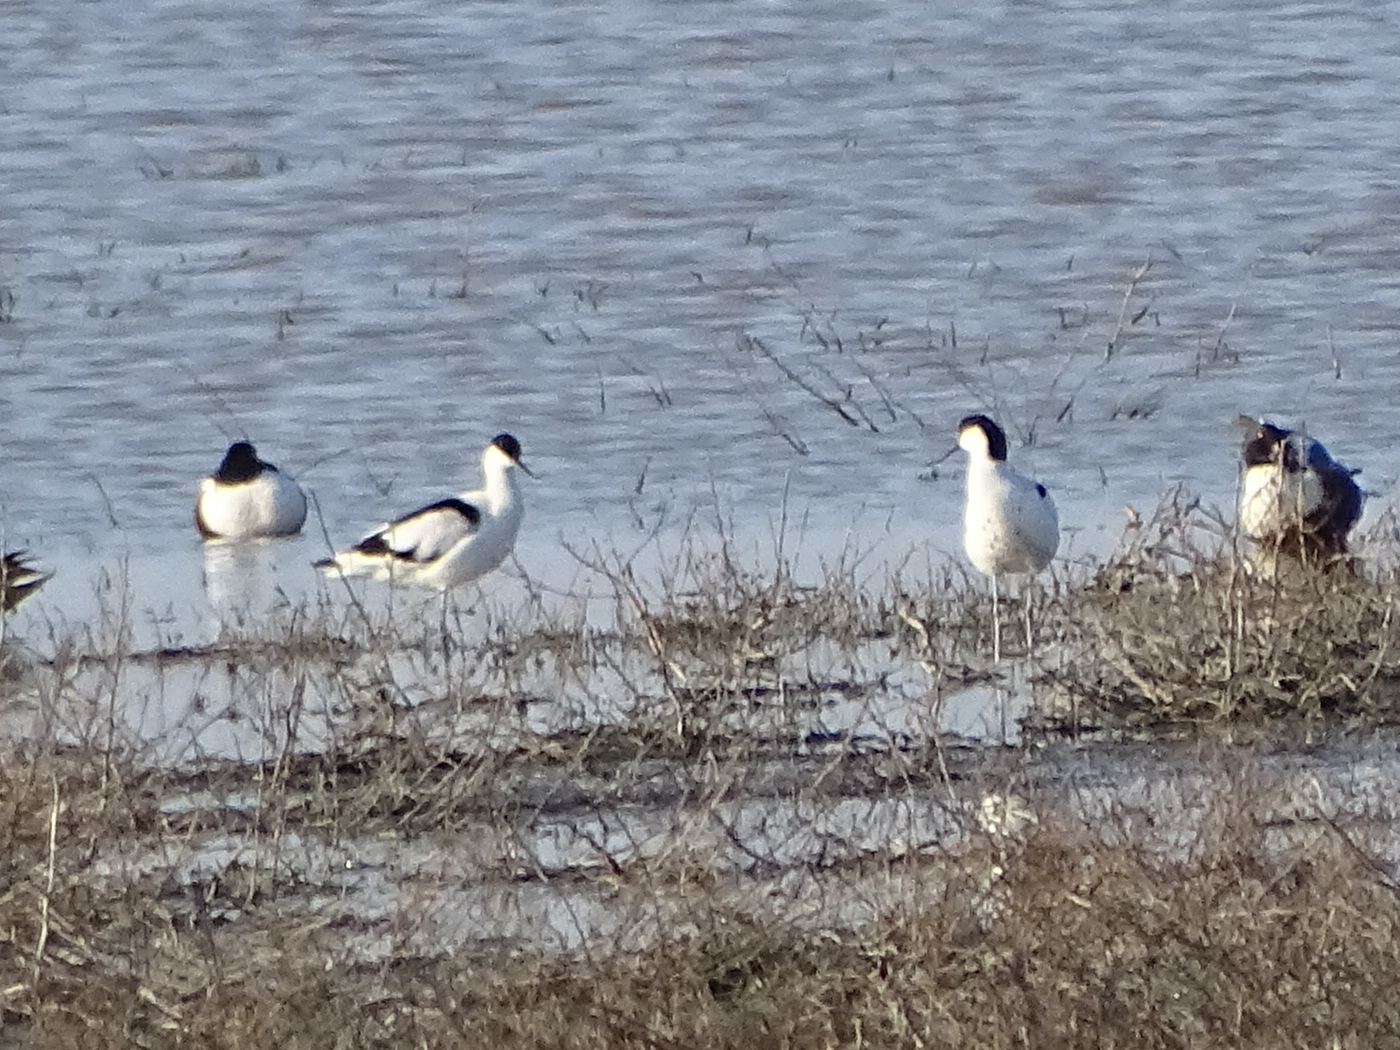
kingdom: Animalia
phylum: Chordata
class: Aves
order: Charadriiformes
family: Recurvirostridae
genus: Recurvirostra
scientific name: Recurvirostra avosetta
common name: Pied avocet
